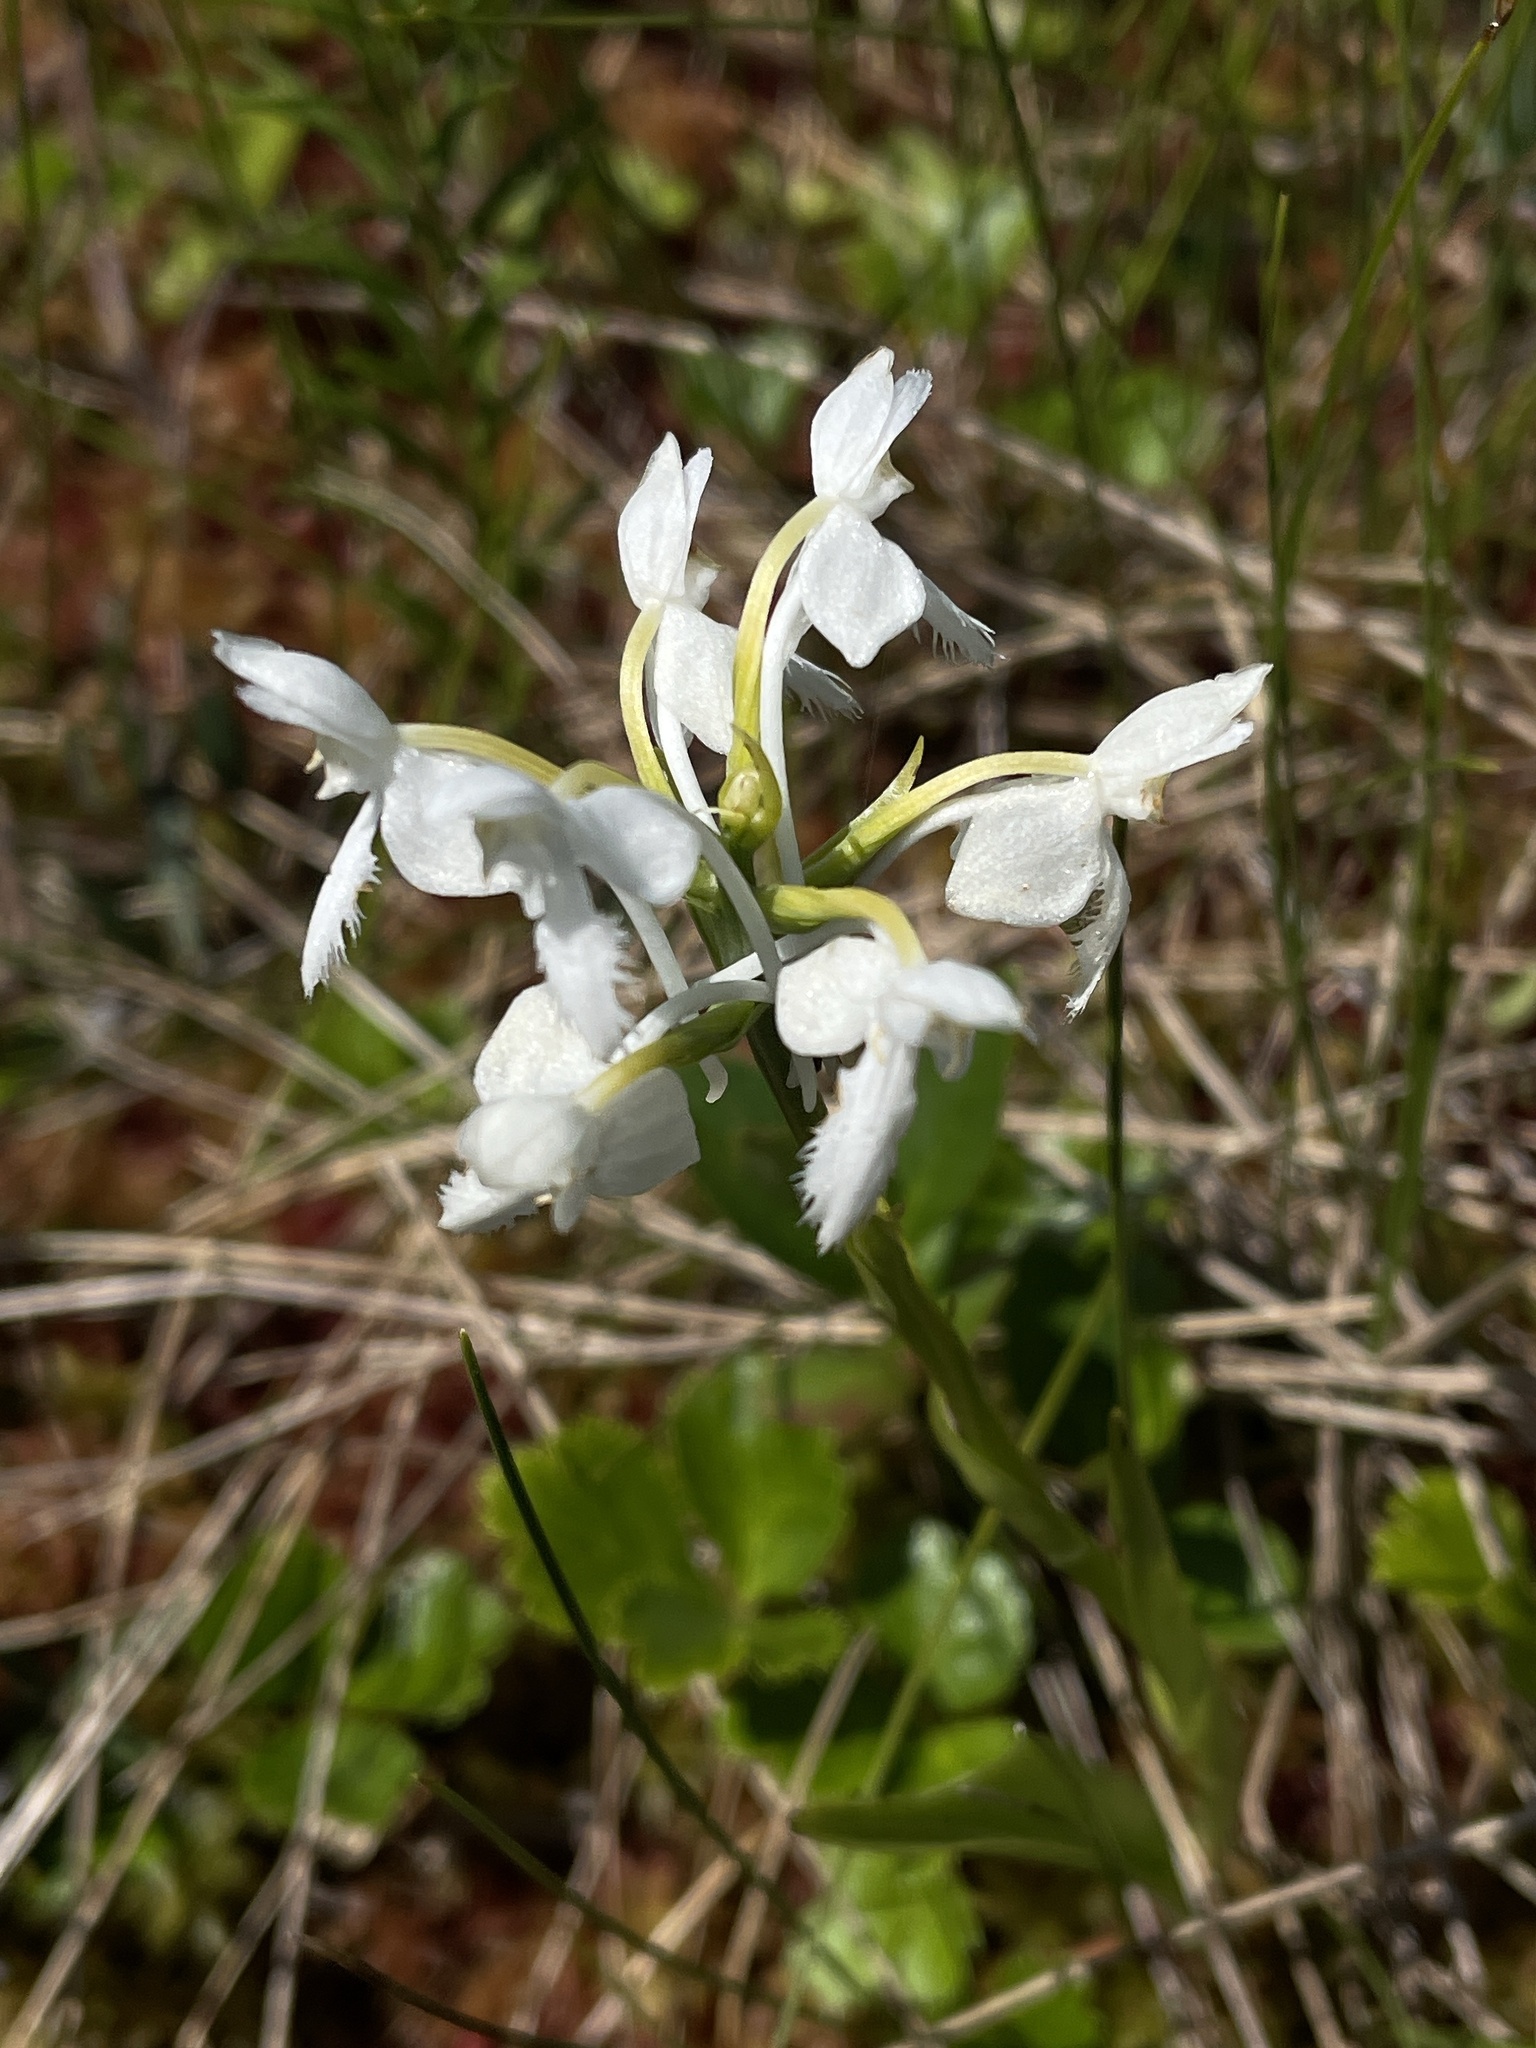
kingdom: Plantae
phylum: Tracheophyta
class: Liliopsida
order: Asparagales
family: Orchidaceae
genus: Platanthera
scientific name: Platanthera blephariglottis
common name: White fringed orchid
